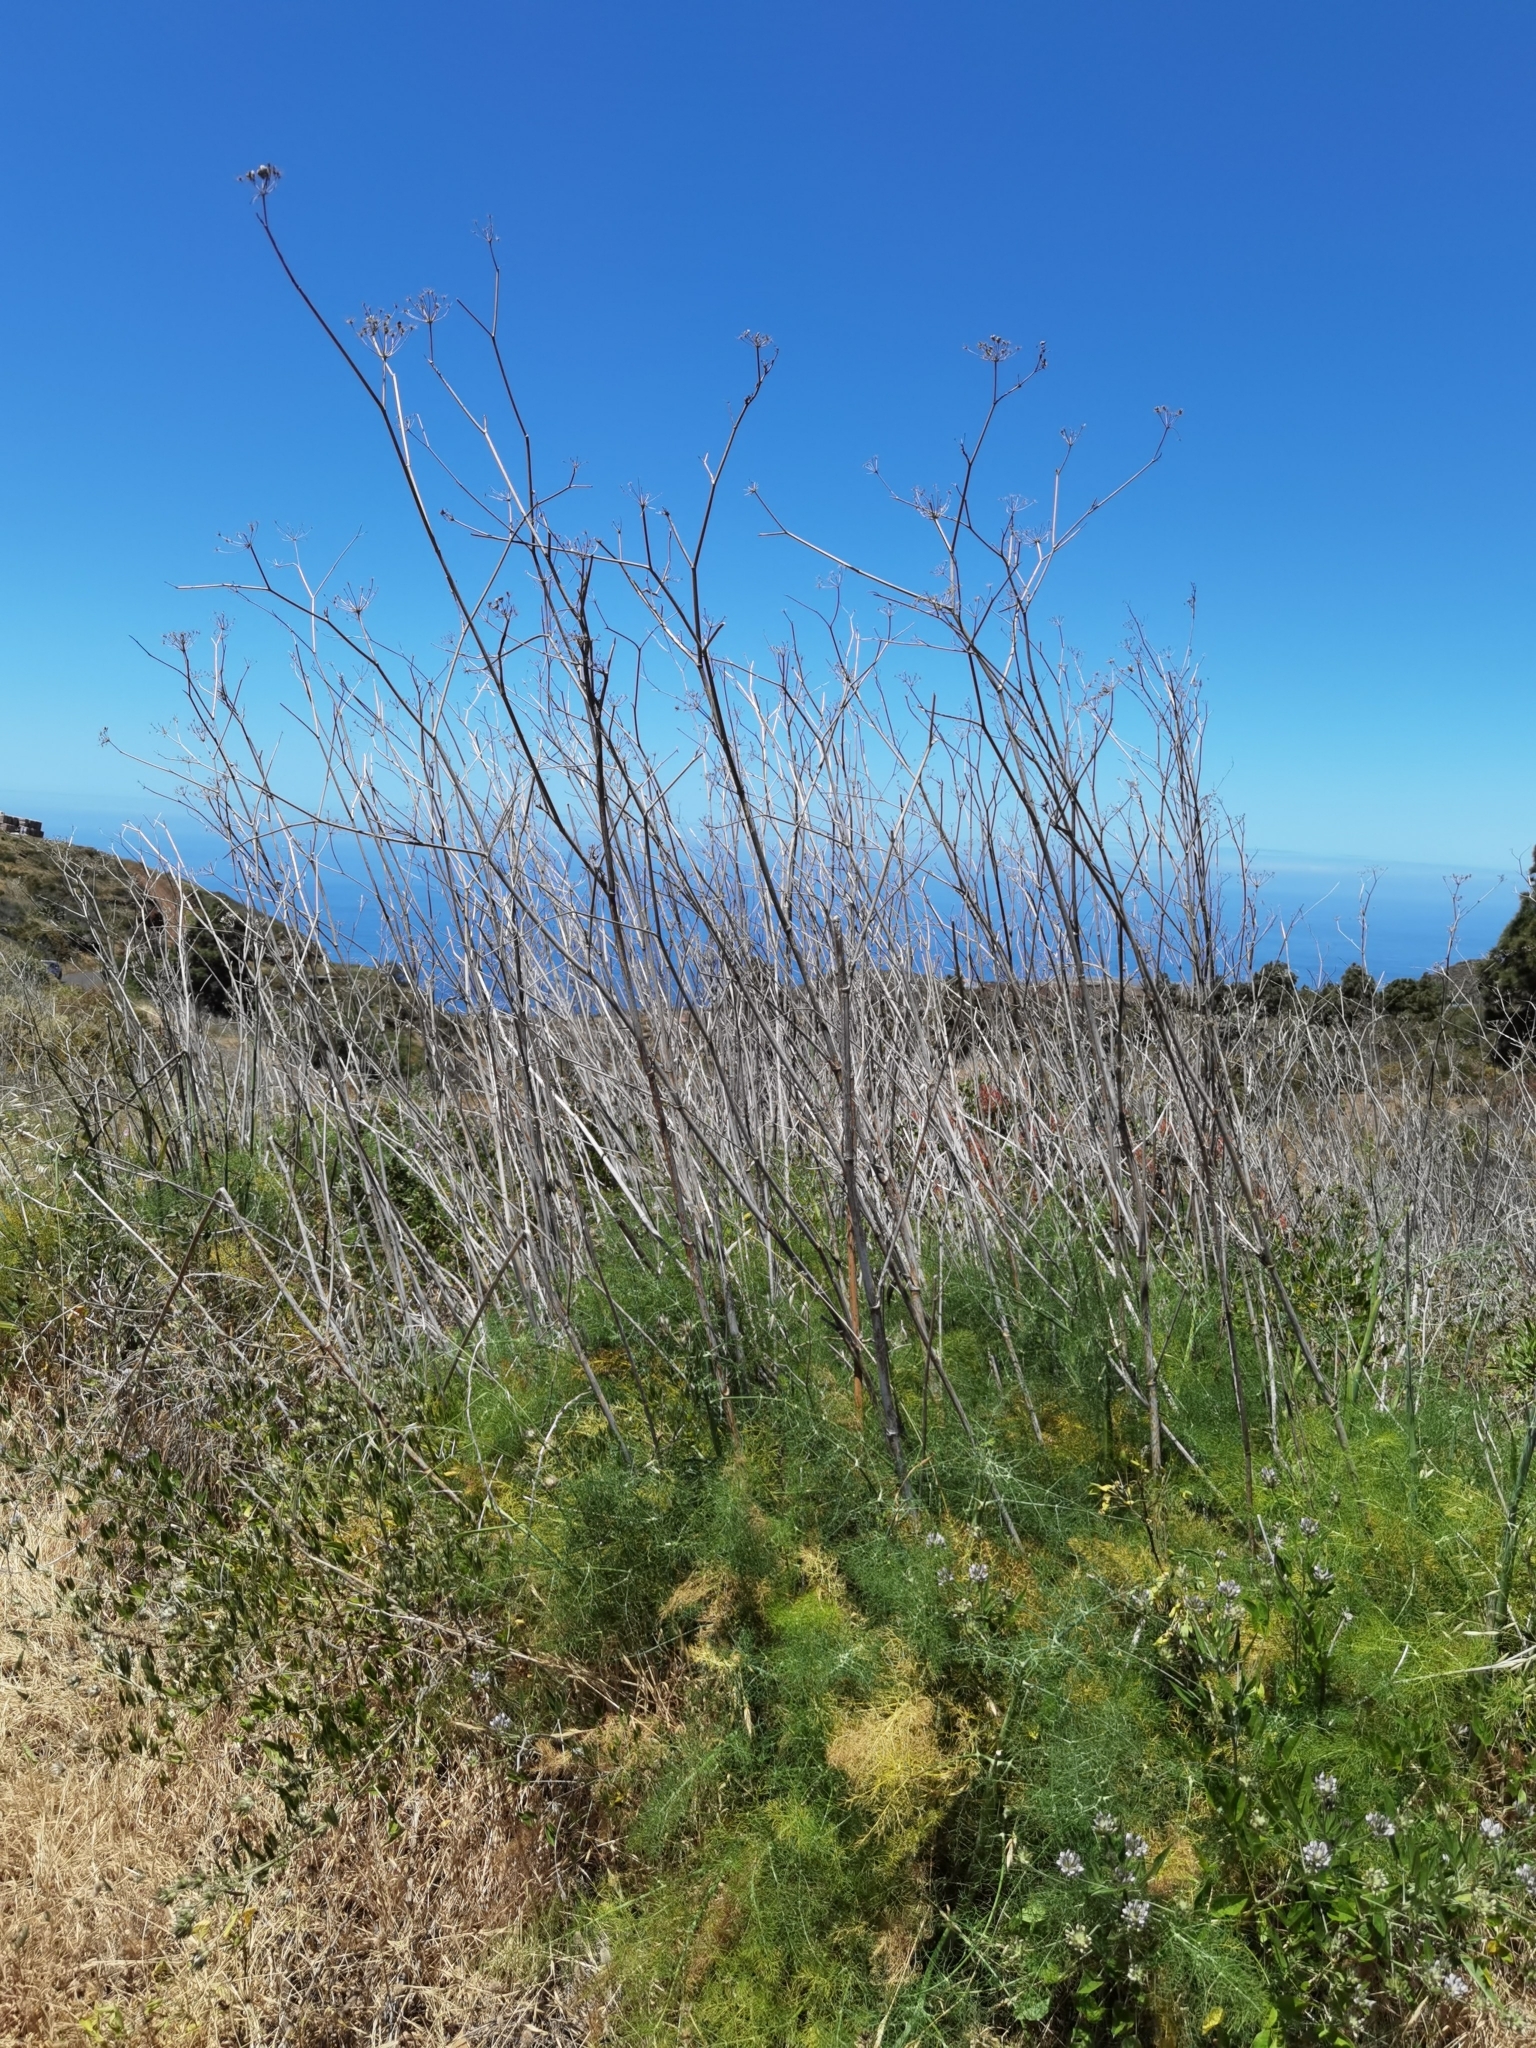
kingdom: Plantae
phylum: Tracheophyta
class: Magnoliopsida
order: Apiales
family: Apiaceae
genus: Foeniculum
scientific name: Foeniculum vulgare
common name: Fennel
